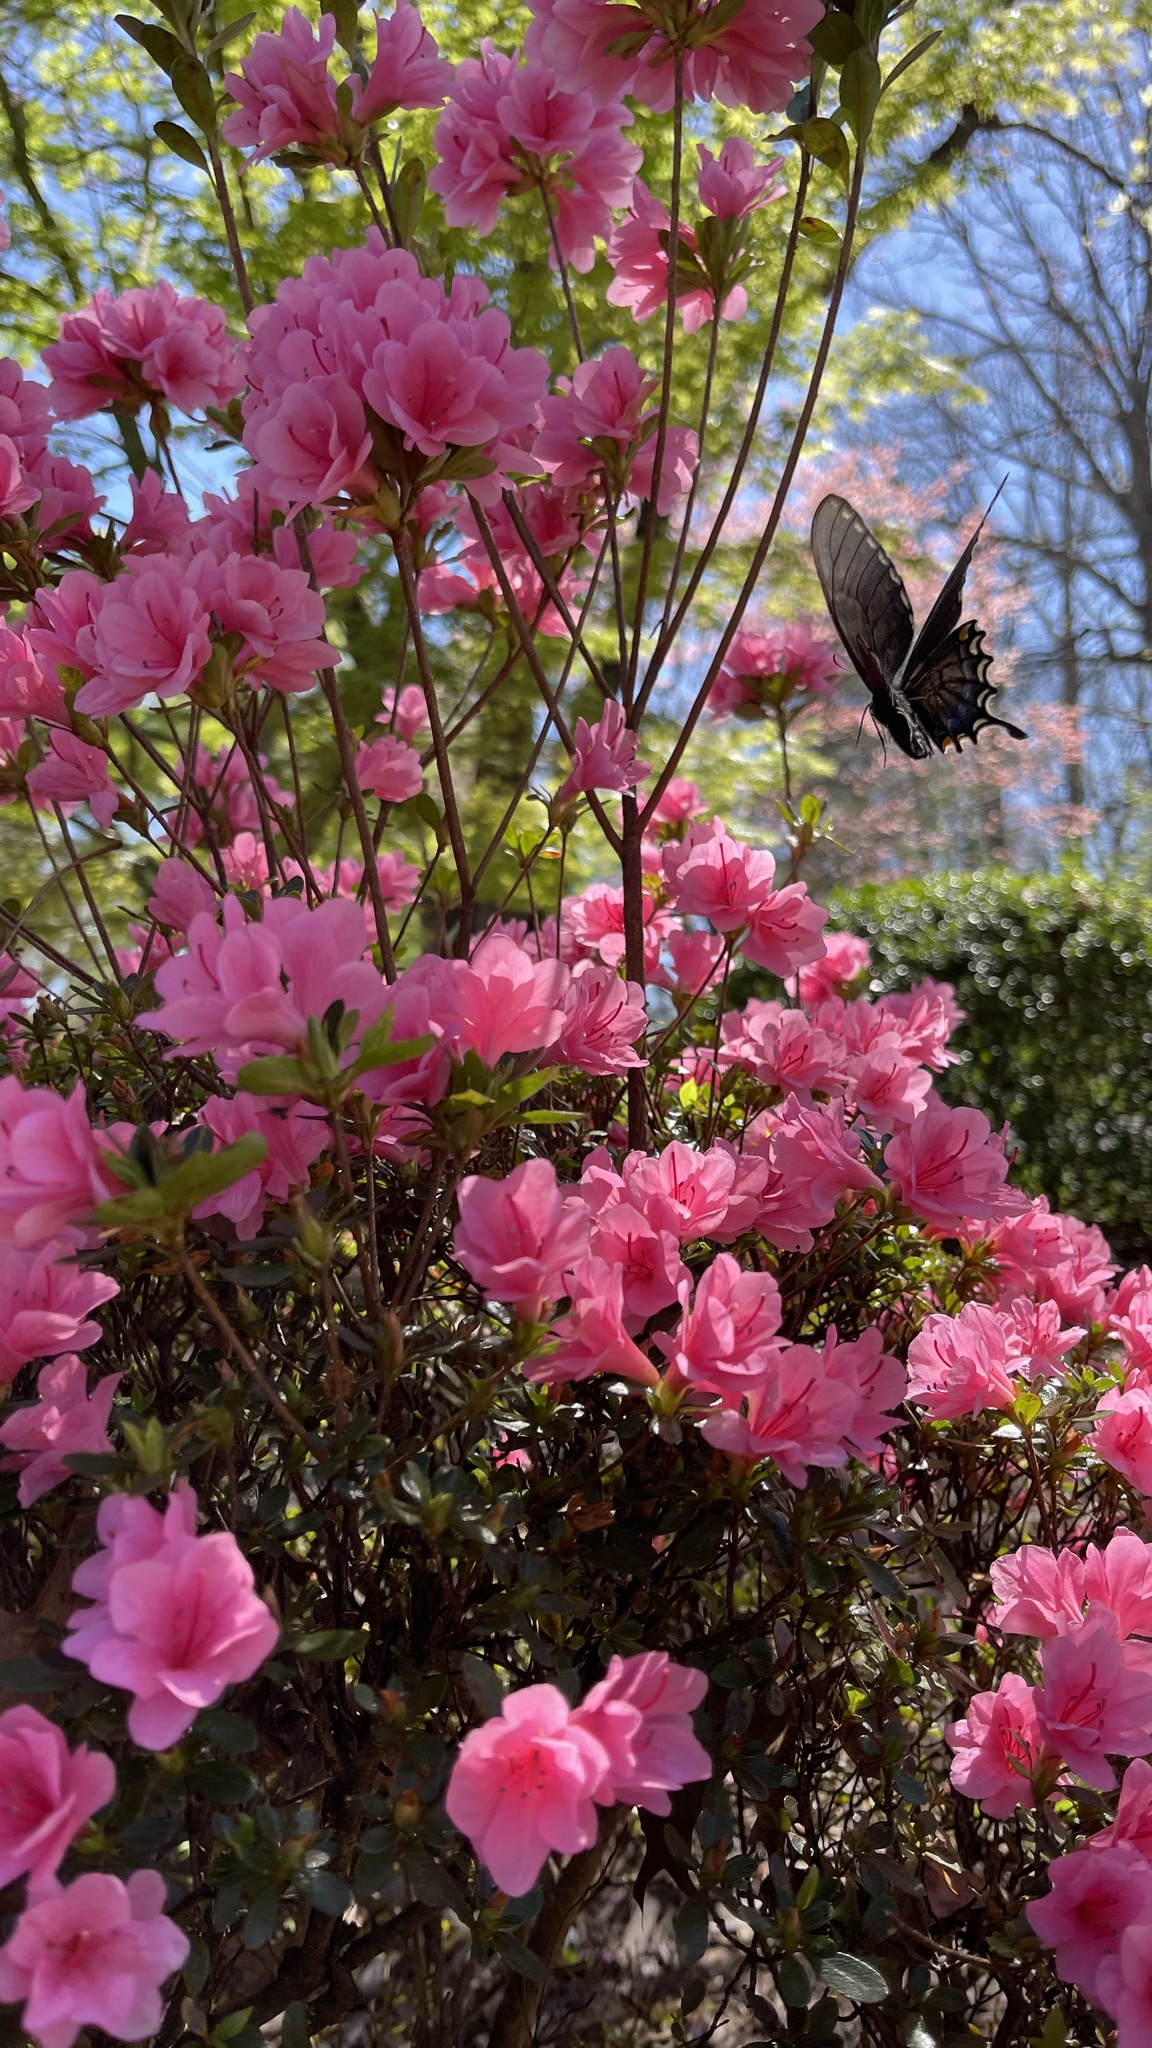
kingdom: Animalia
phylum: Arthropoda
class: Insecta
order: Lepidoptera
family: Papilionidae
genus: Papilio
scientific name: Papilio glaucus
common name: Tiger swallowtail
